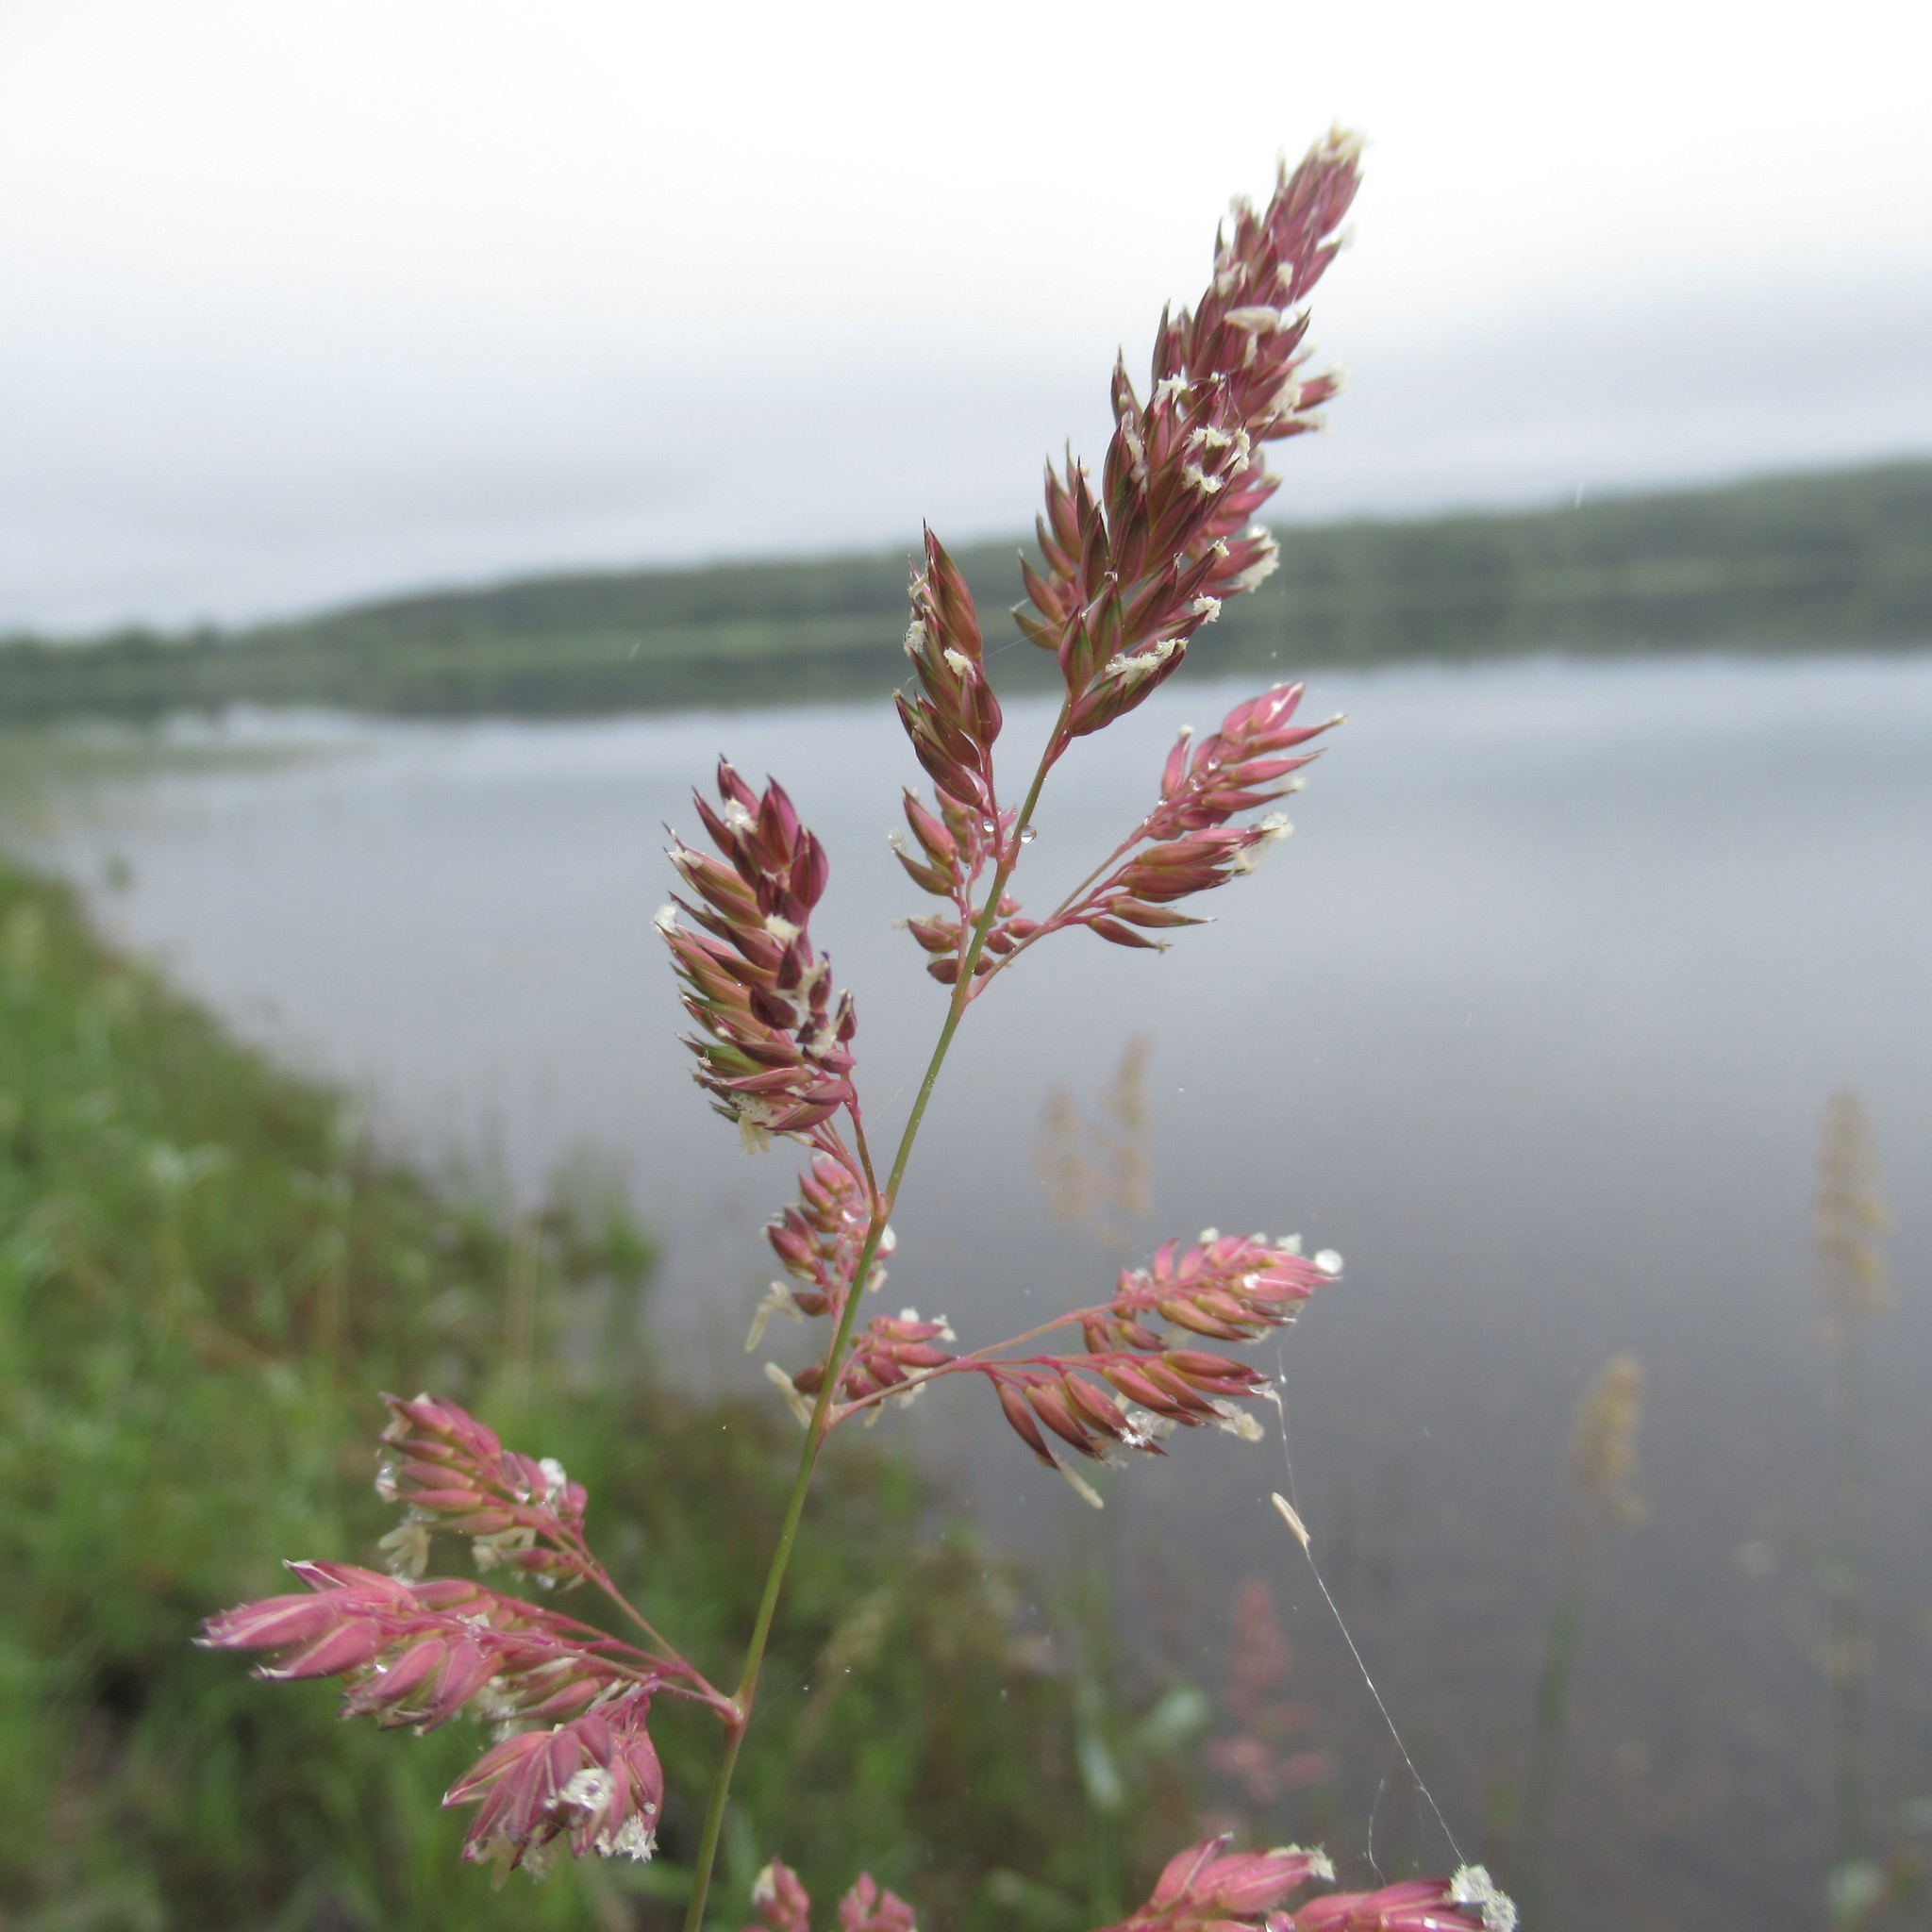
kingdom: Plantae
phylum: Tracheophyta
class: Liliopsida
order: Poales
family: Poaceae
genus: Phalaris
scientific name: Phalaris arundinacea
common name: Reed canary-grass
